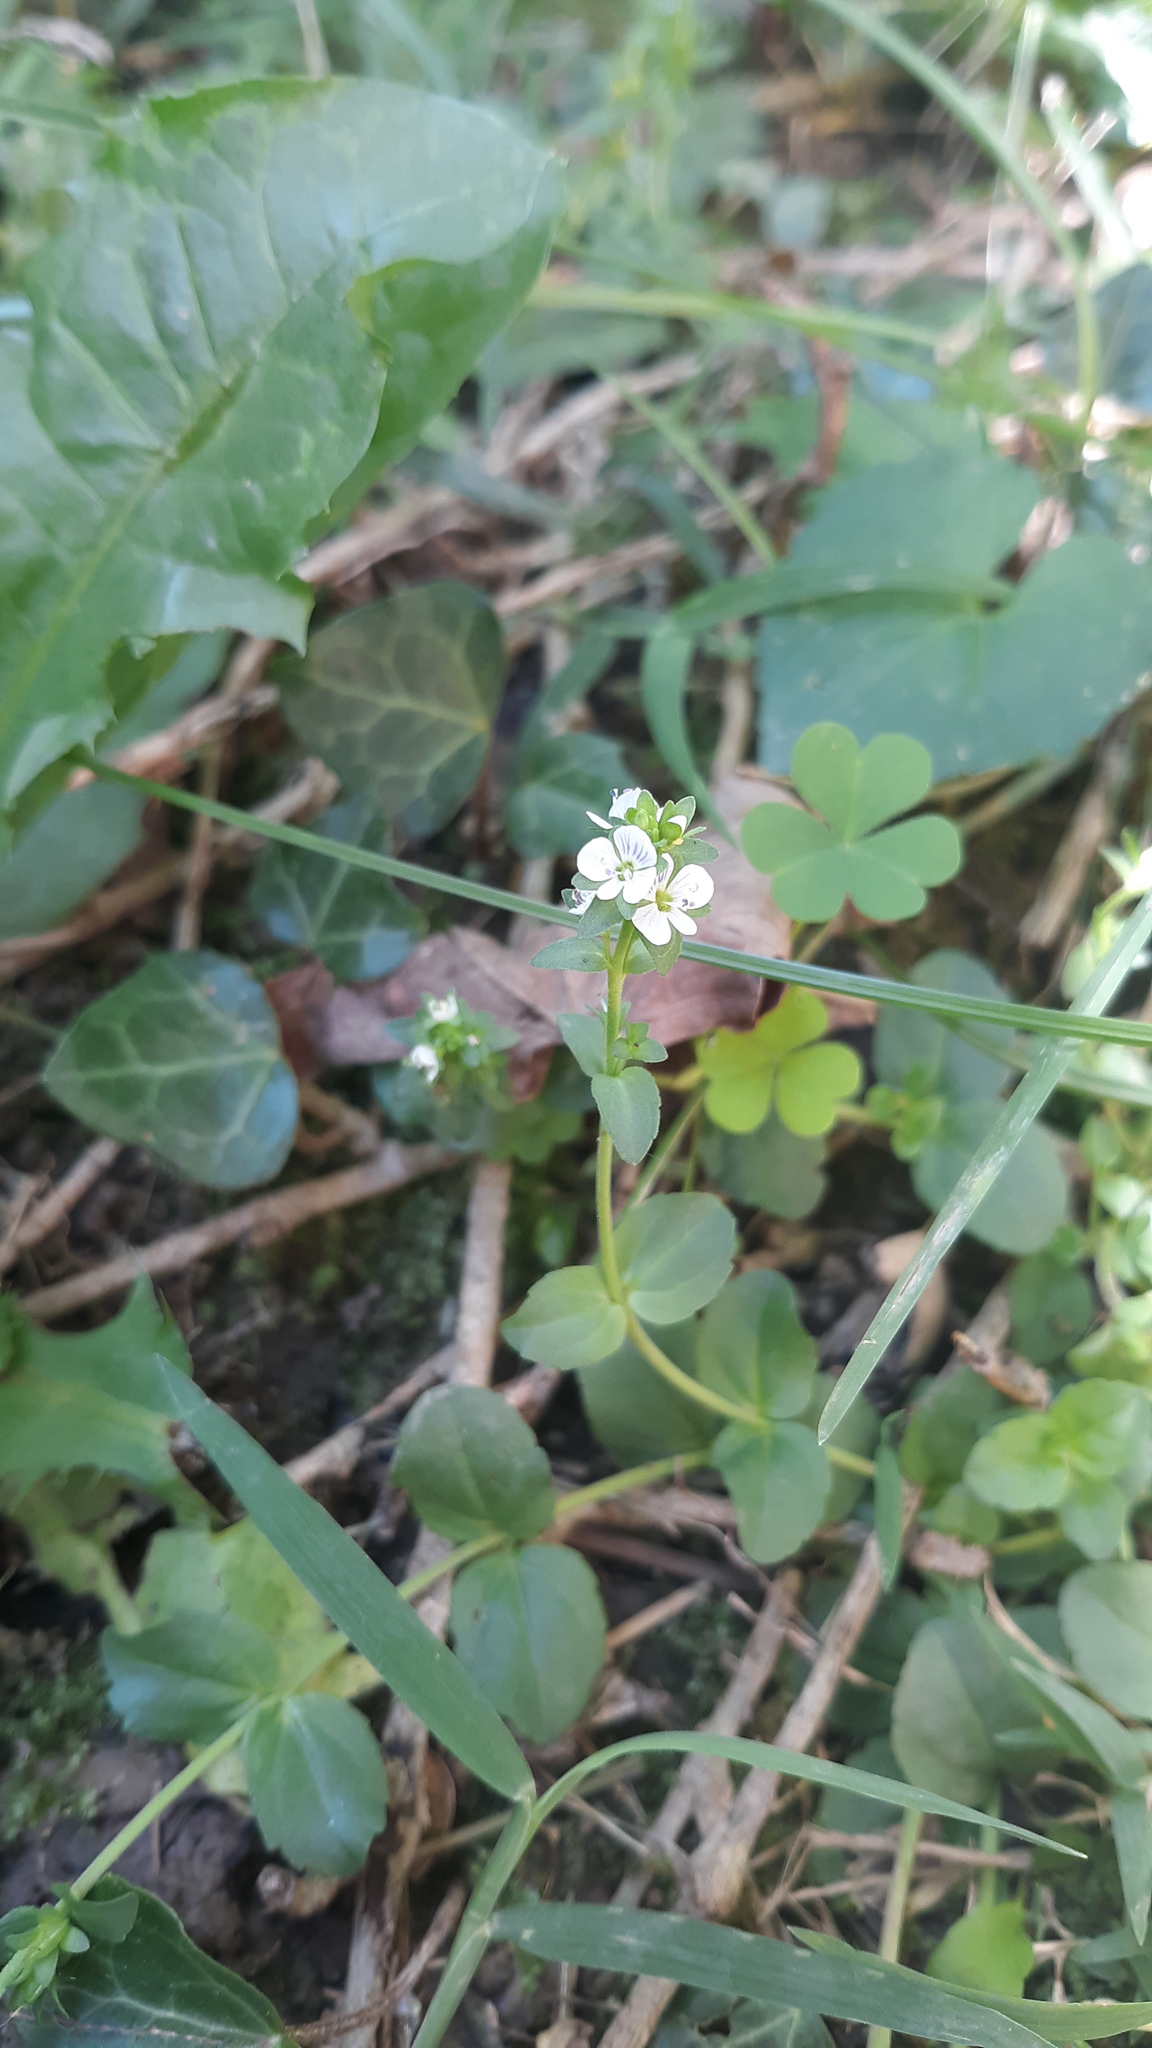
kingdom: Plantae
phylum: Tracheophyta
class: Magnoliopsida
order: Lamiales
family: Plantaginaceae
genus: Veronica
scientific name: Veronica serpyllifolia
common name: Thyme-leaved speedwell
